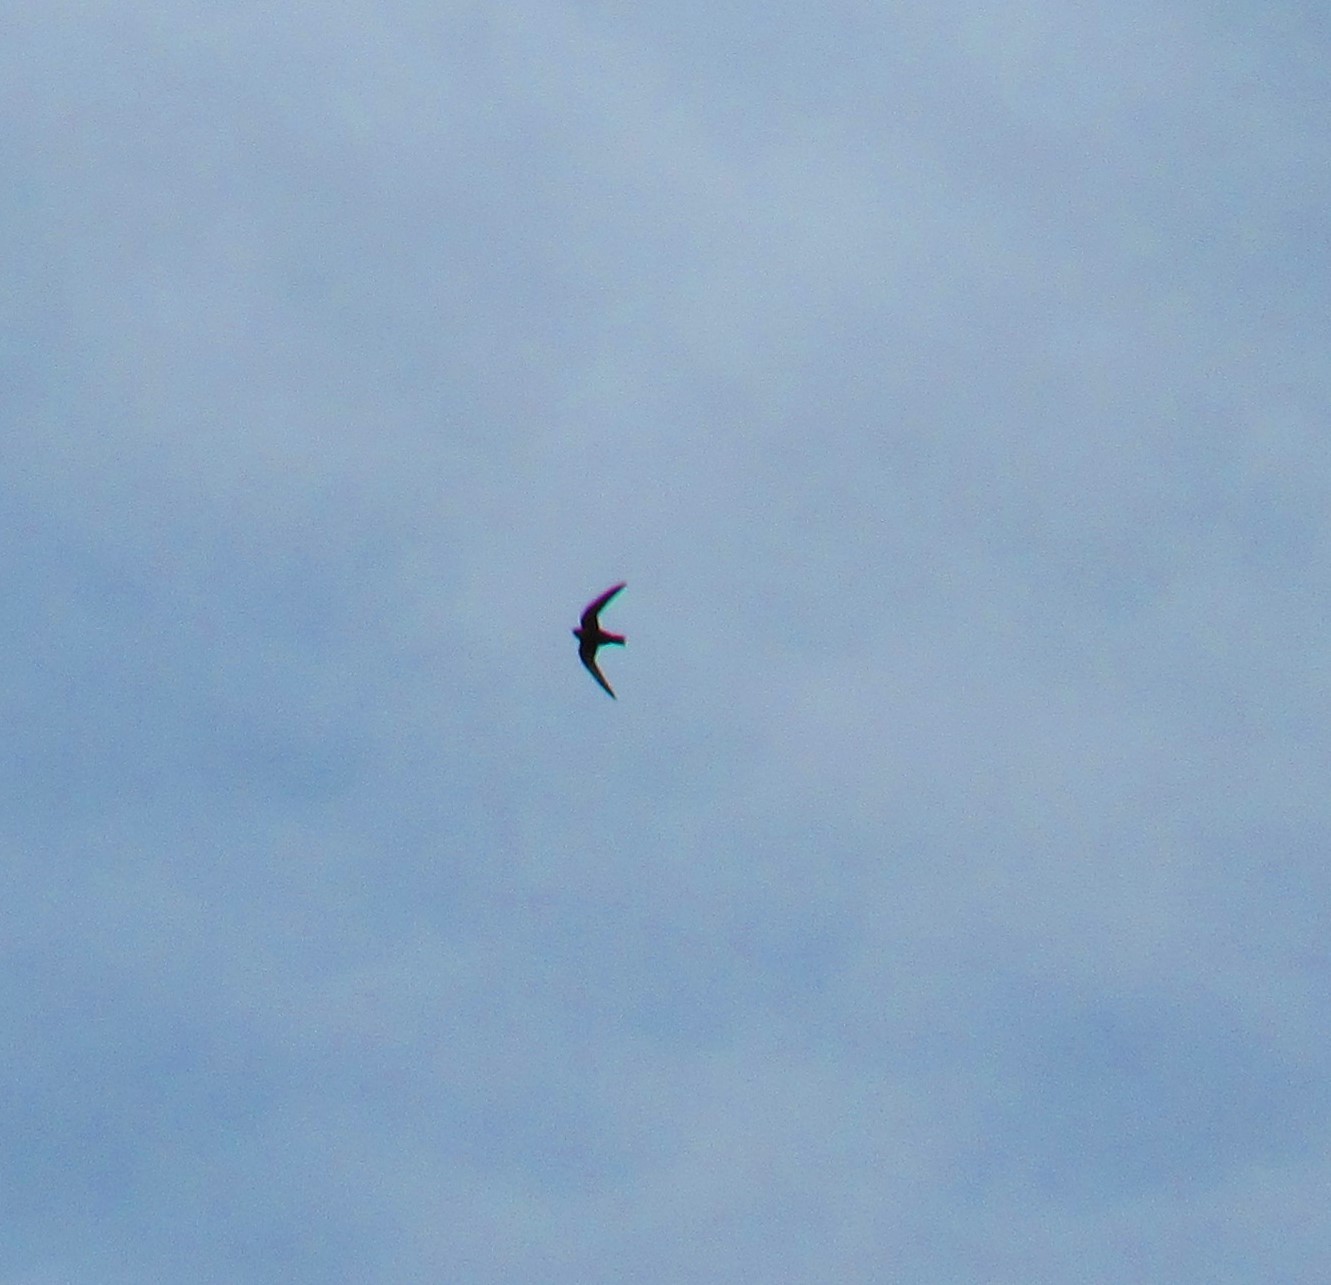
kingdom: Animalia
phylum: Chordata
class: Aves
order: Apodiformes
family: Apodidae
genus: Cypseloides
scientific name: Cypseloides niger
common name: Black swift
